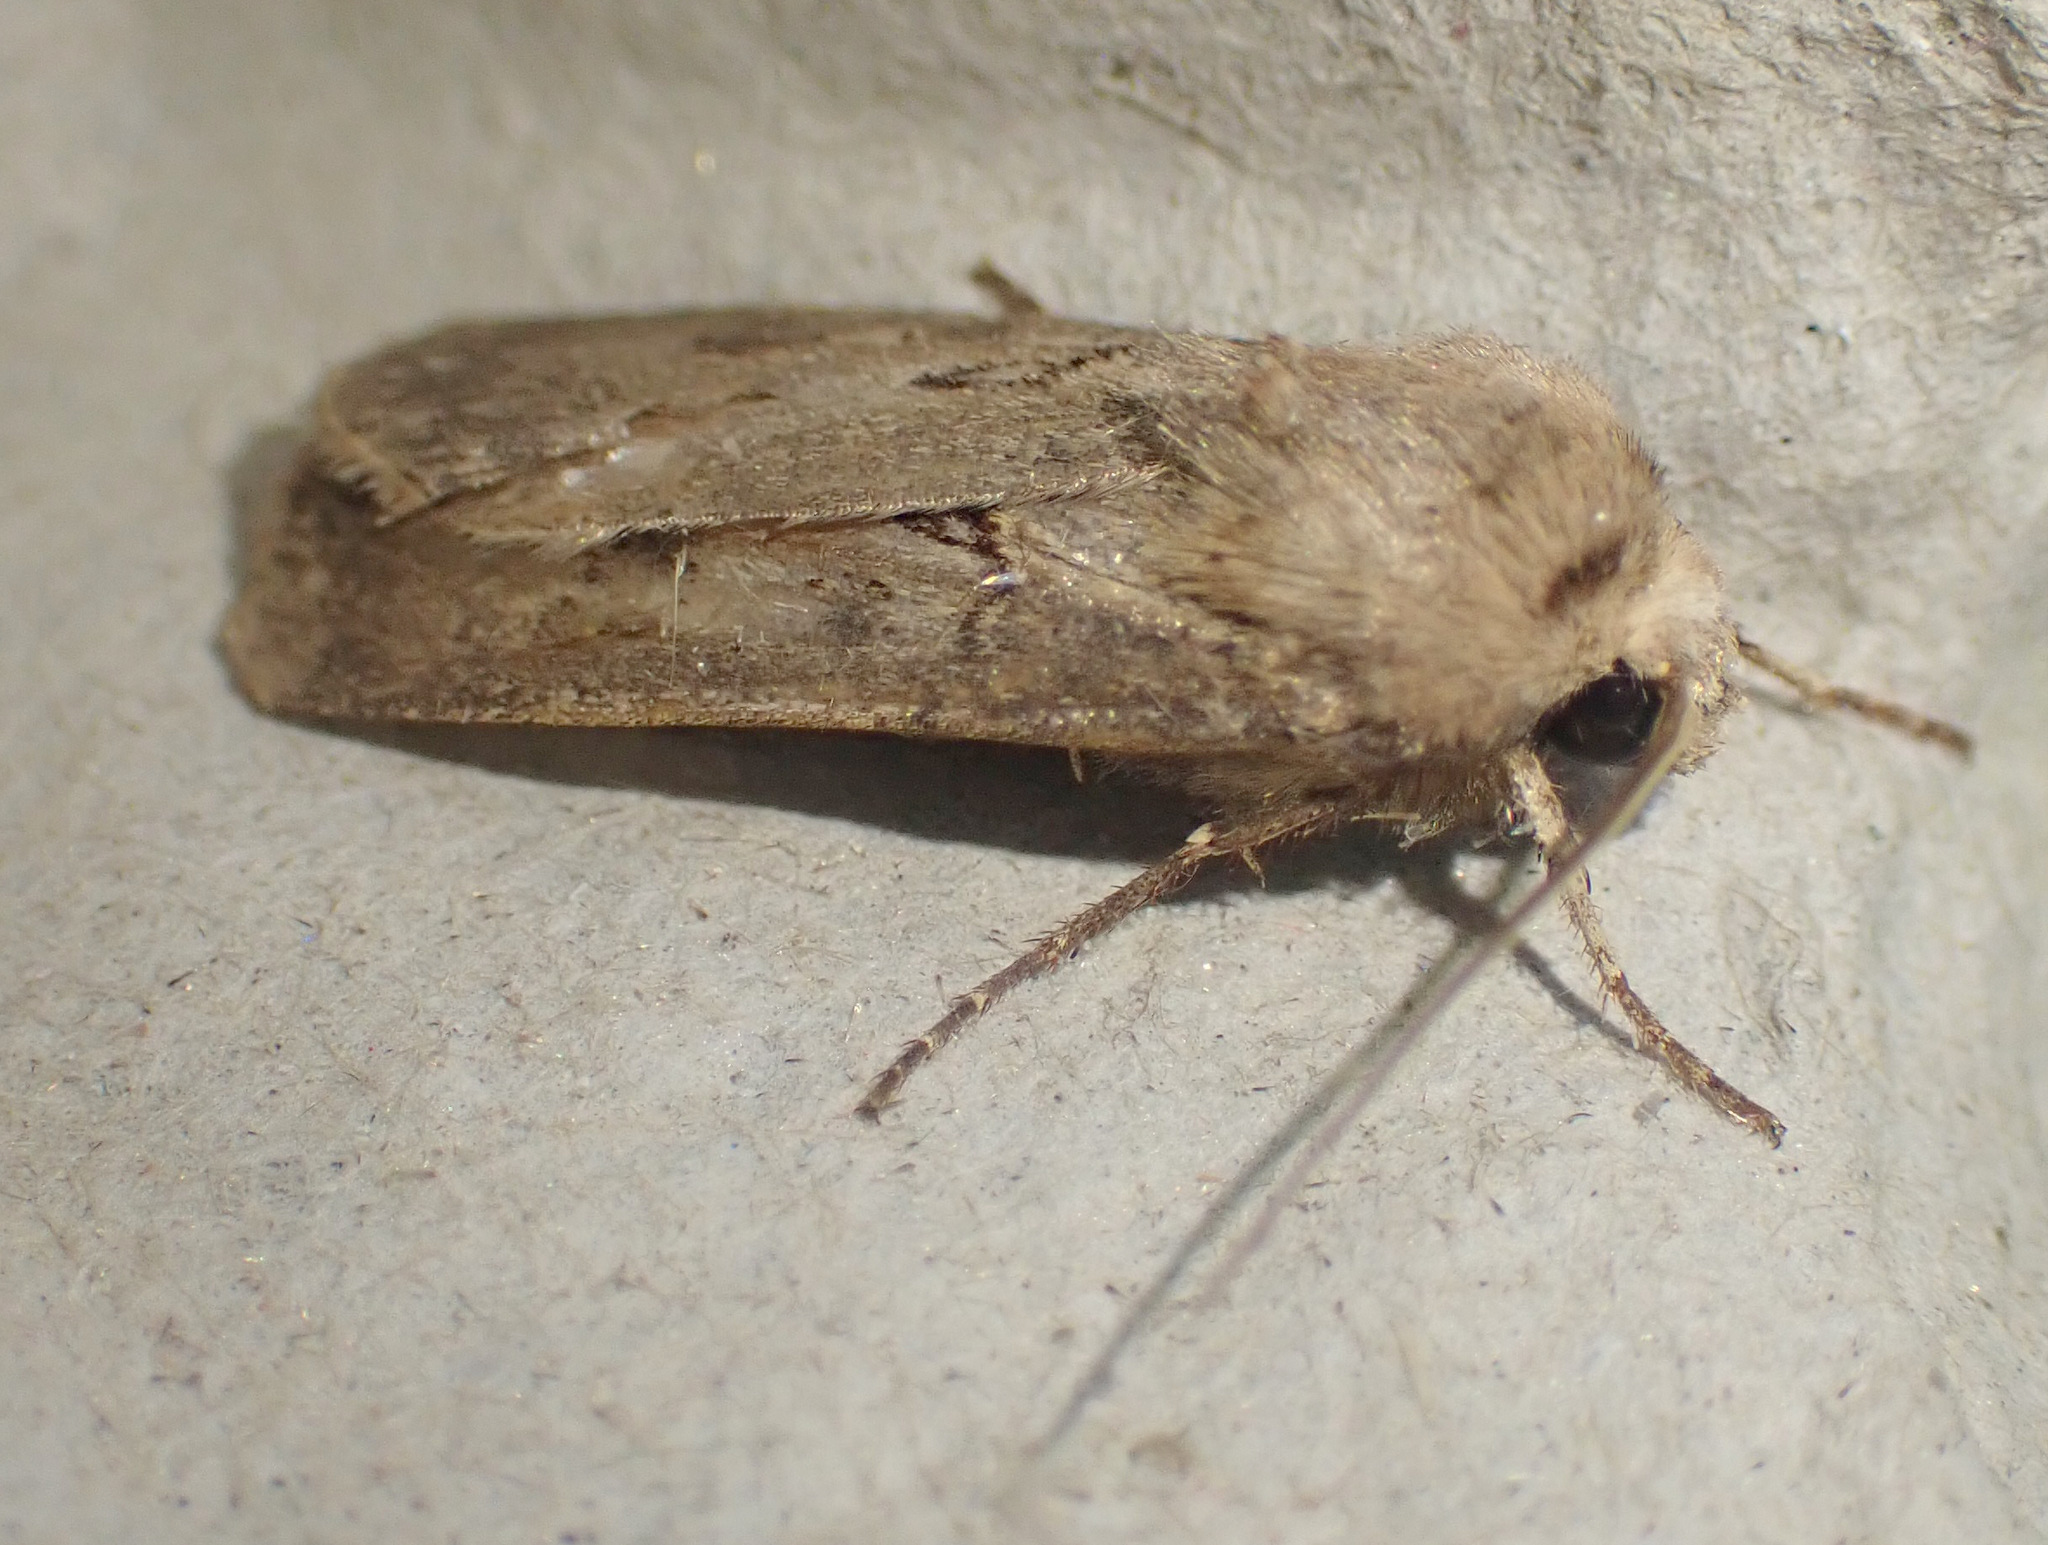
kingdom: Animalia
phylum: Arthropoda
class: Insecta
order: Lepidoptera
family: Noctuidae
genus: Agrotis
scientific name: Agrotis exclamationis
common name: Heart and dart
